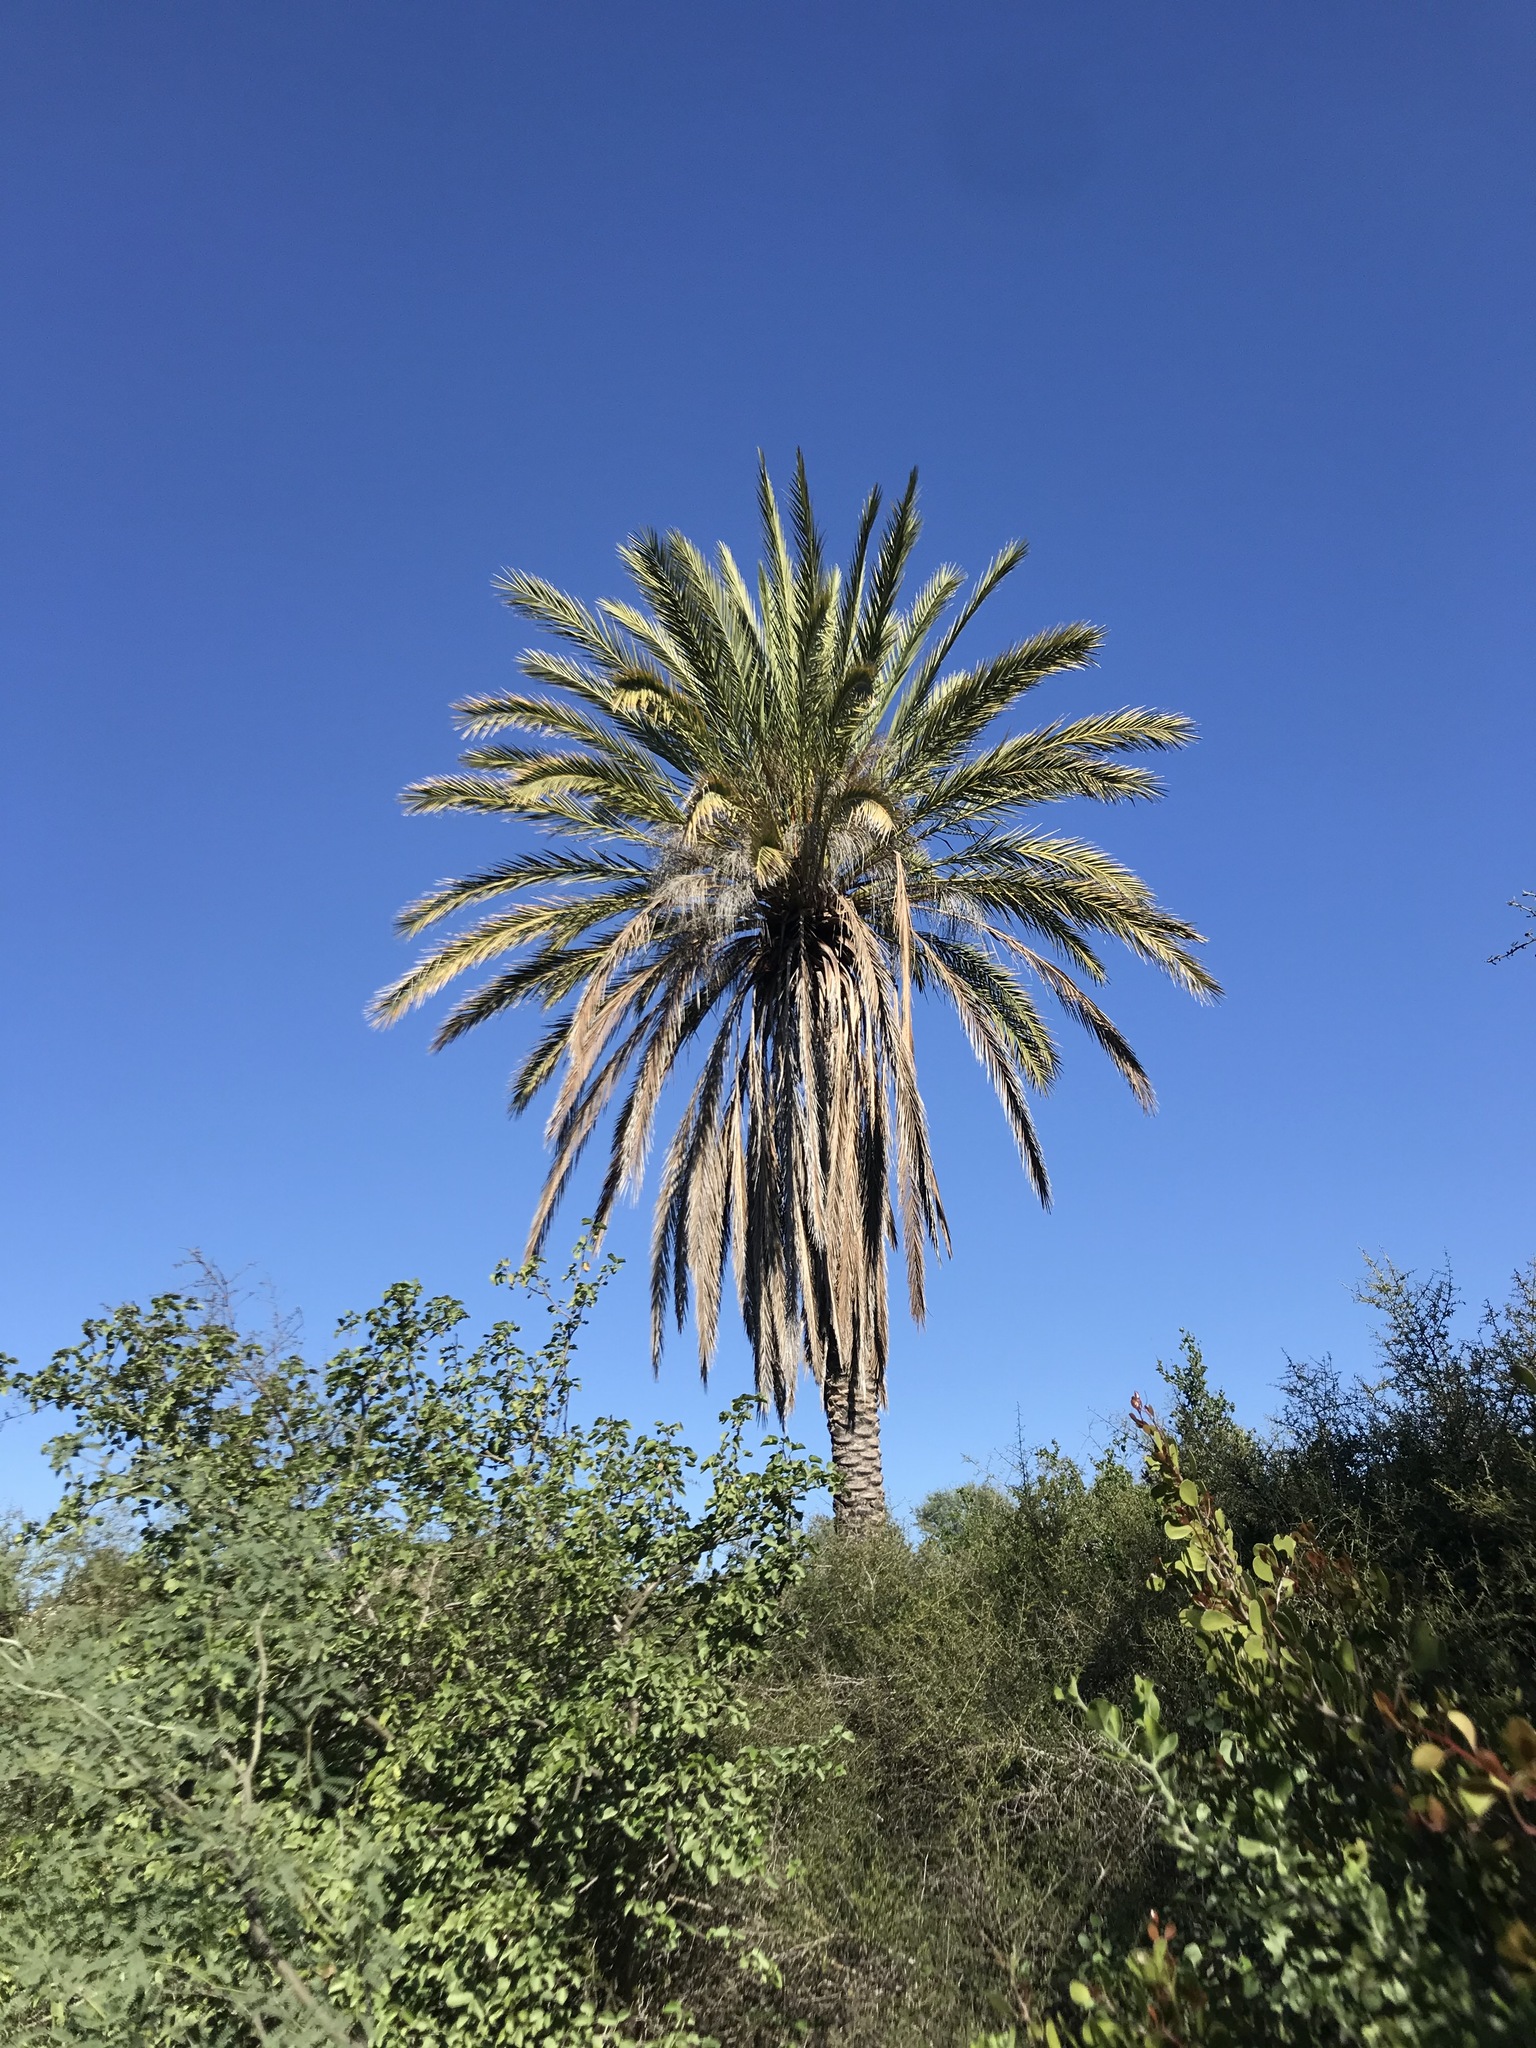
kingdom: Plantae
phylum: Tracheophyta
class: Liliopsida
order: Arecales
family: Arecaceae
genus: Phoenix
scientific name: Phoenix dactylifera
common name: Date palm
